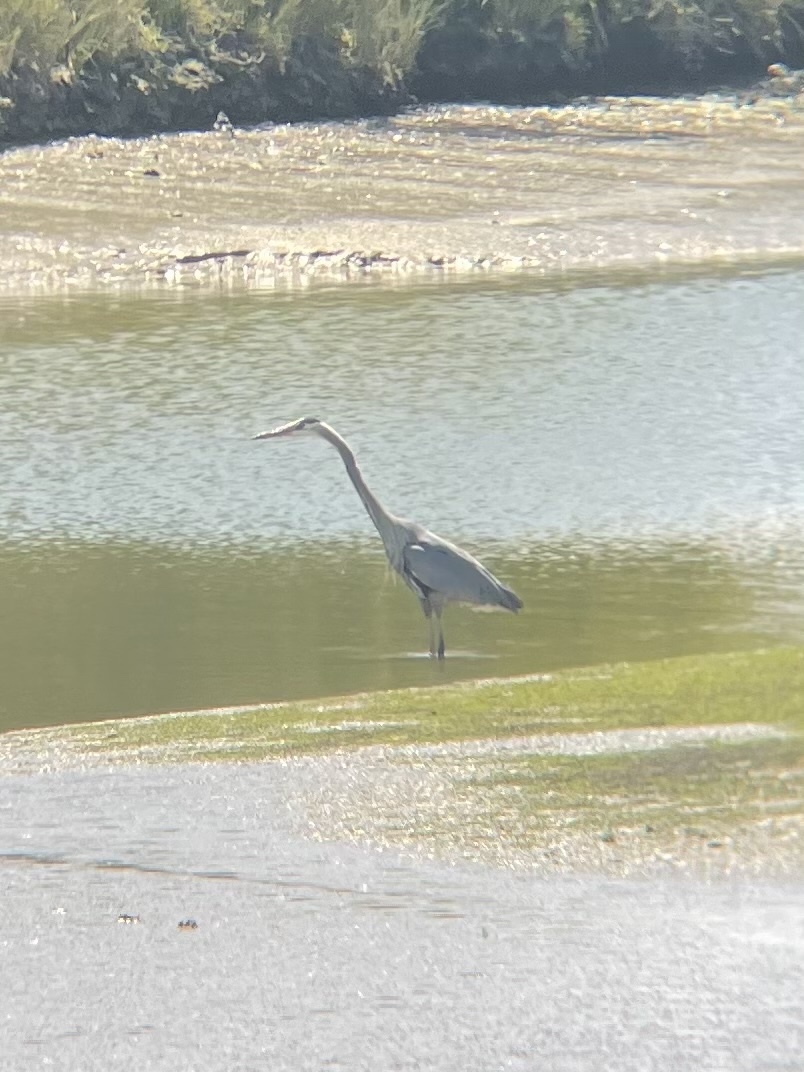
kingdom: Animalia
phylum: Chordata
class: Aves
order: Pelecaniformes
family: Ardeidae
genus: Ardea
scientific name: Ardea herodias
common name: Great blue heron
